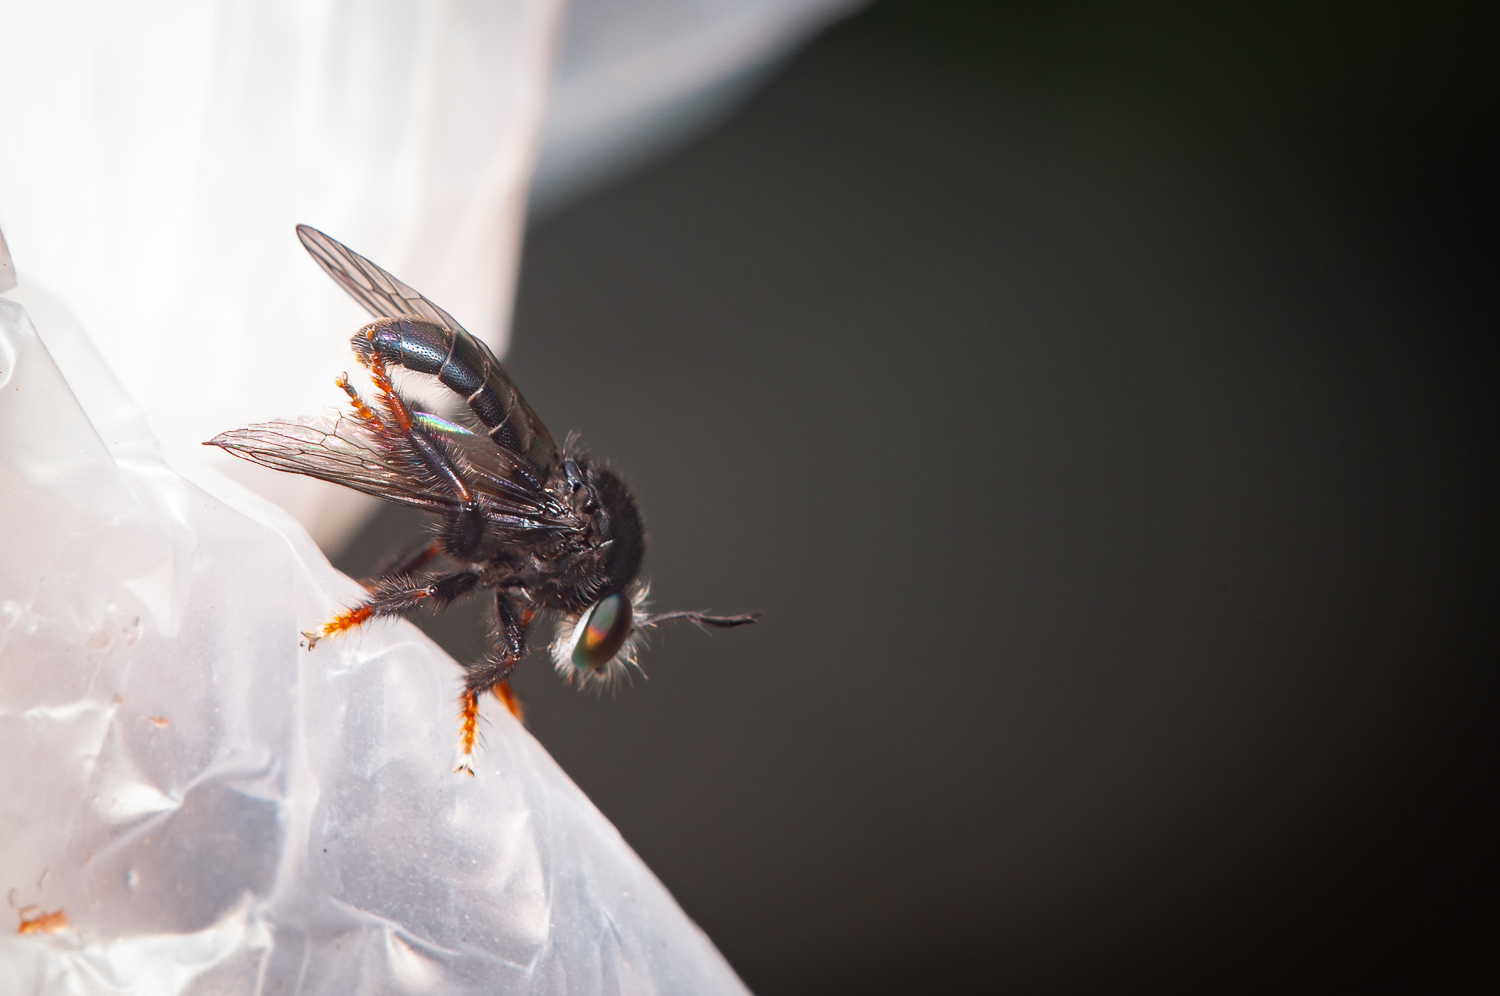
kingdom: Animalia
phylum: Arthropoda
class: Insecta
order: Diptera
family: Asilidae
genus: Cerotainia
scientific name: Cerotainia
